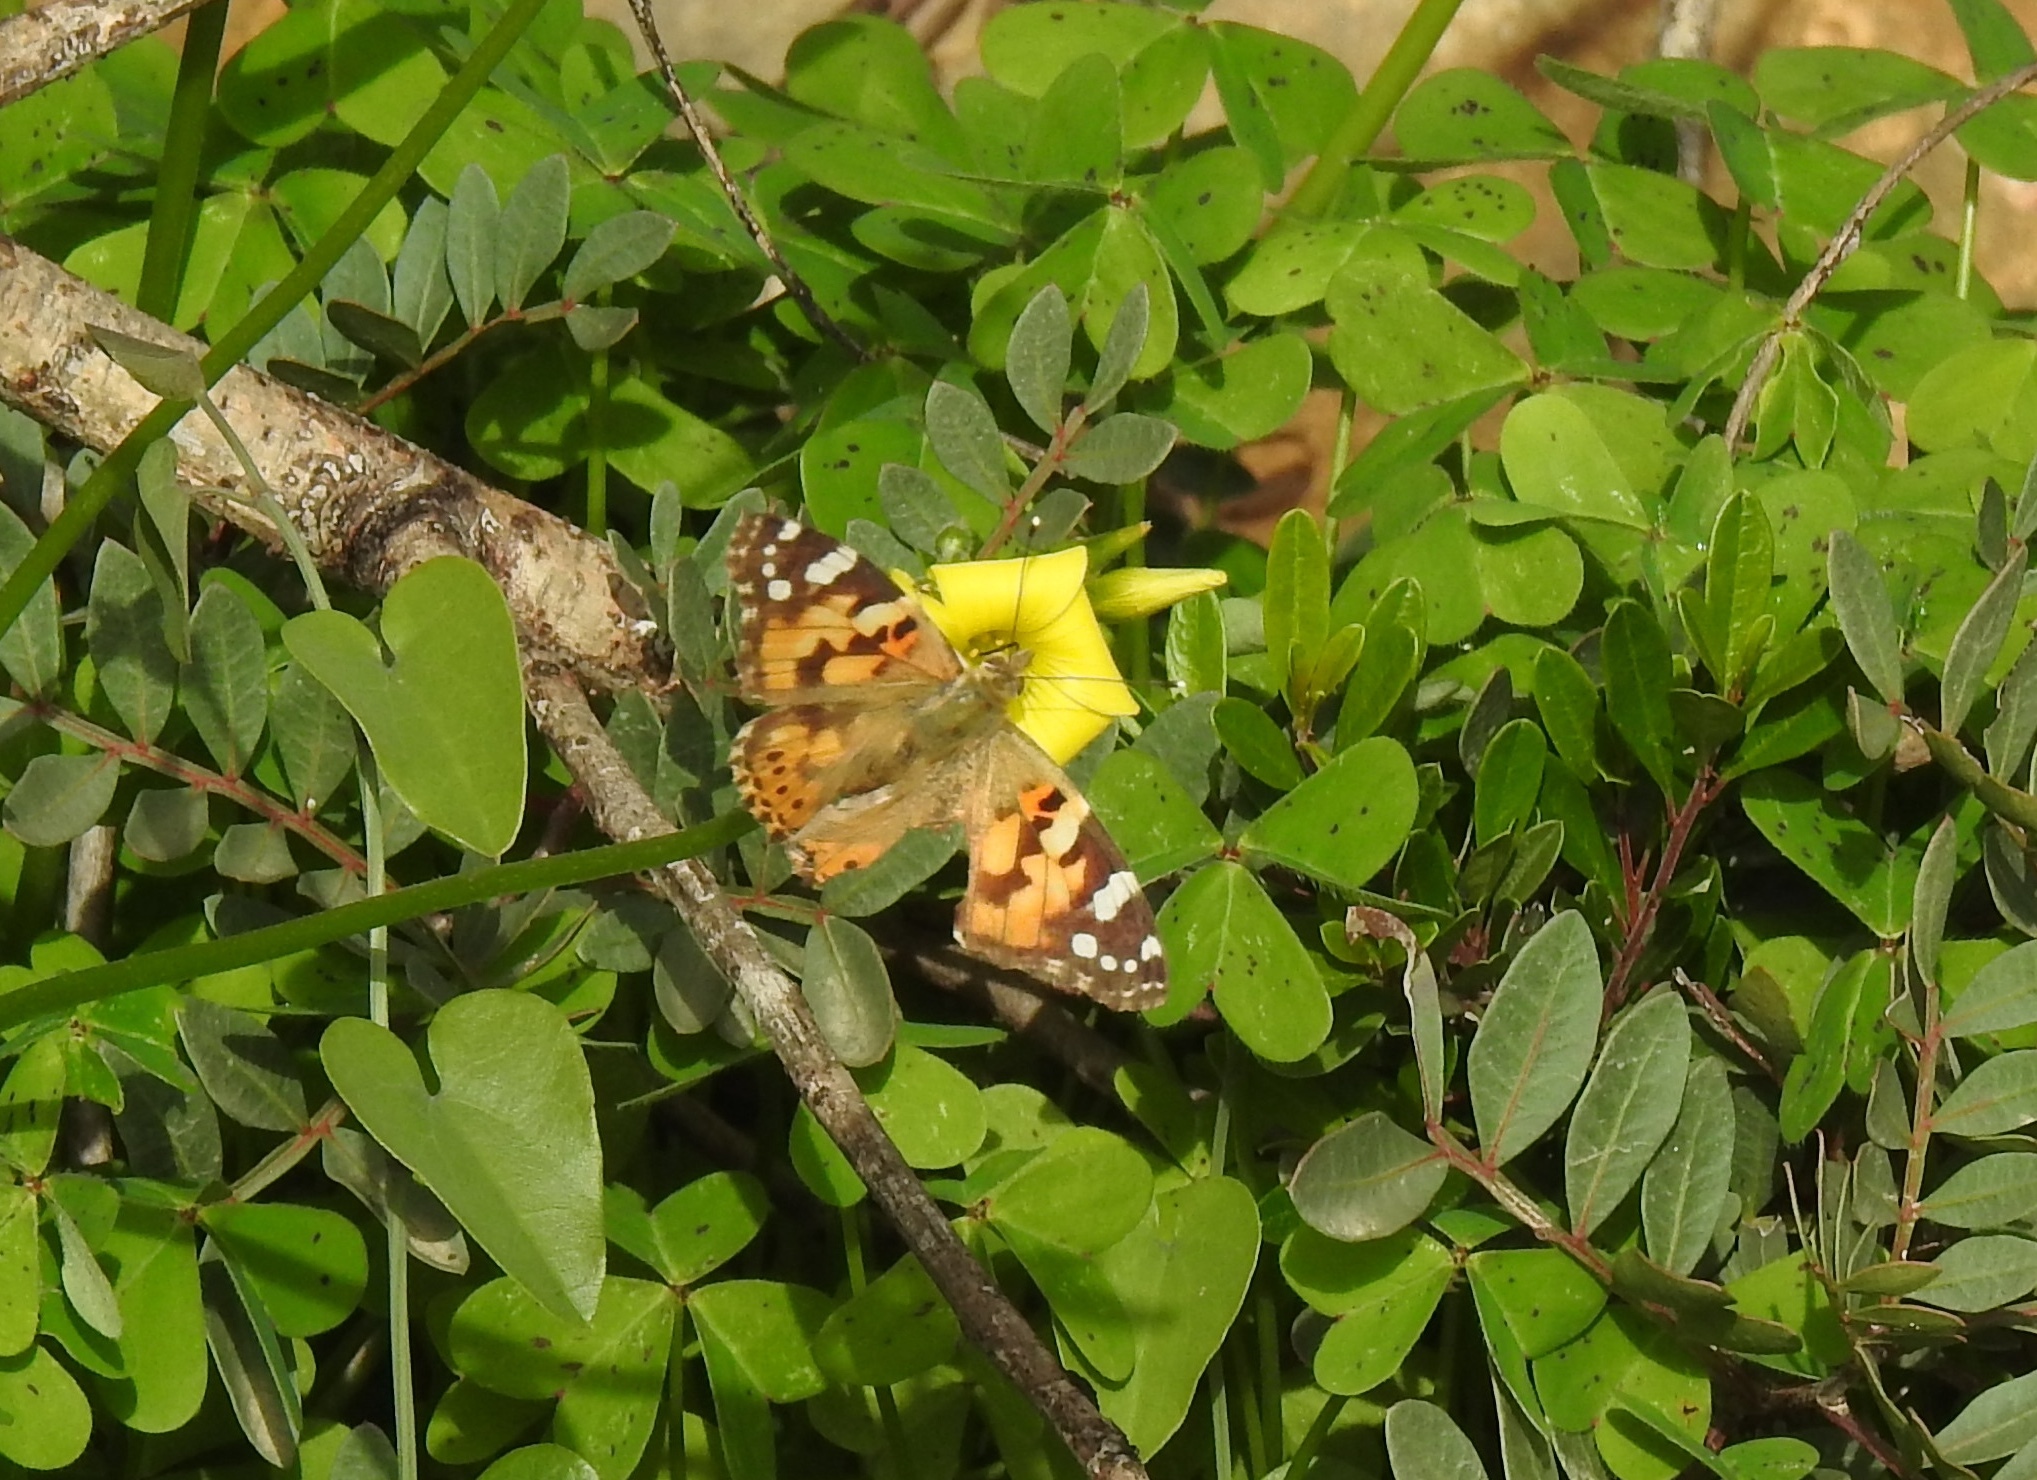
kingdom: Animalia
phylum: Arthropoda
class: Insecta
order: Lepidoptera
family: Nymphalidae
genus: Vanessa
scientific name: Vanessa cardui
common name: Painted lady
